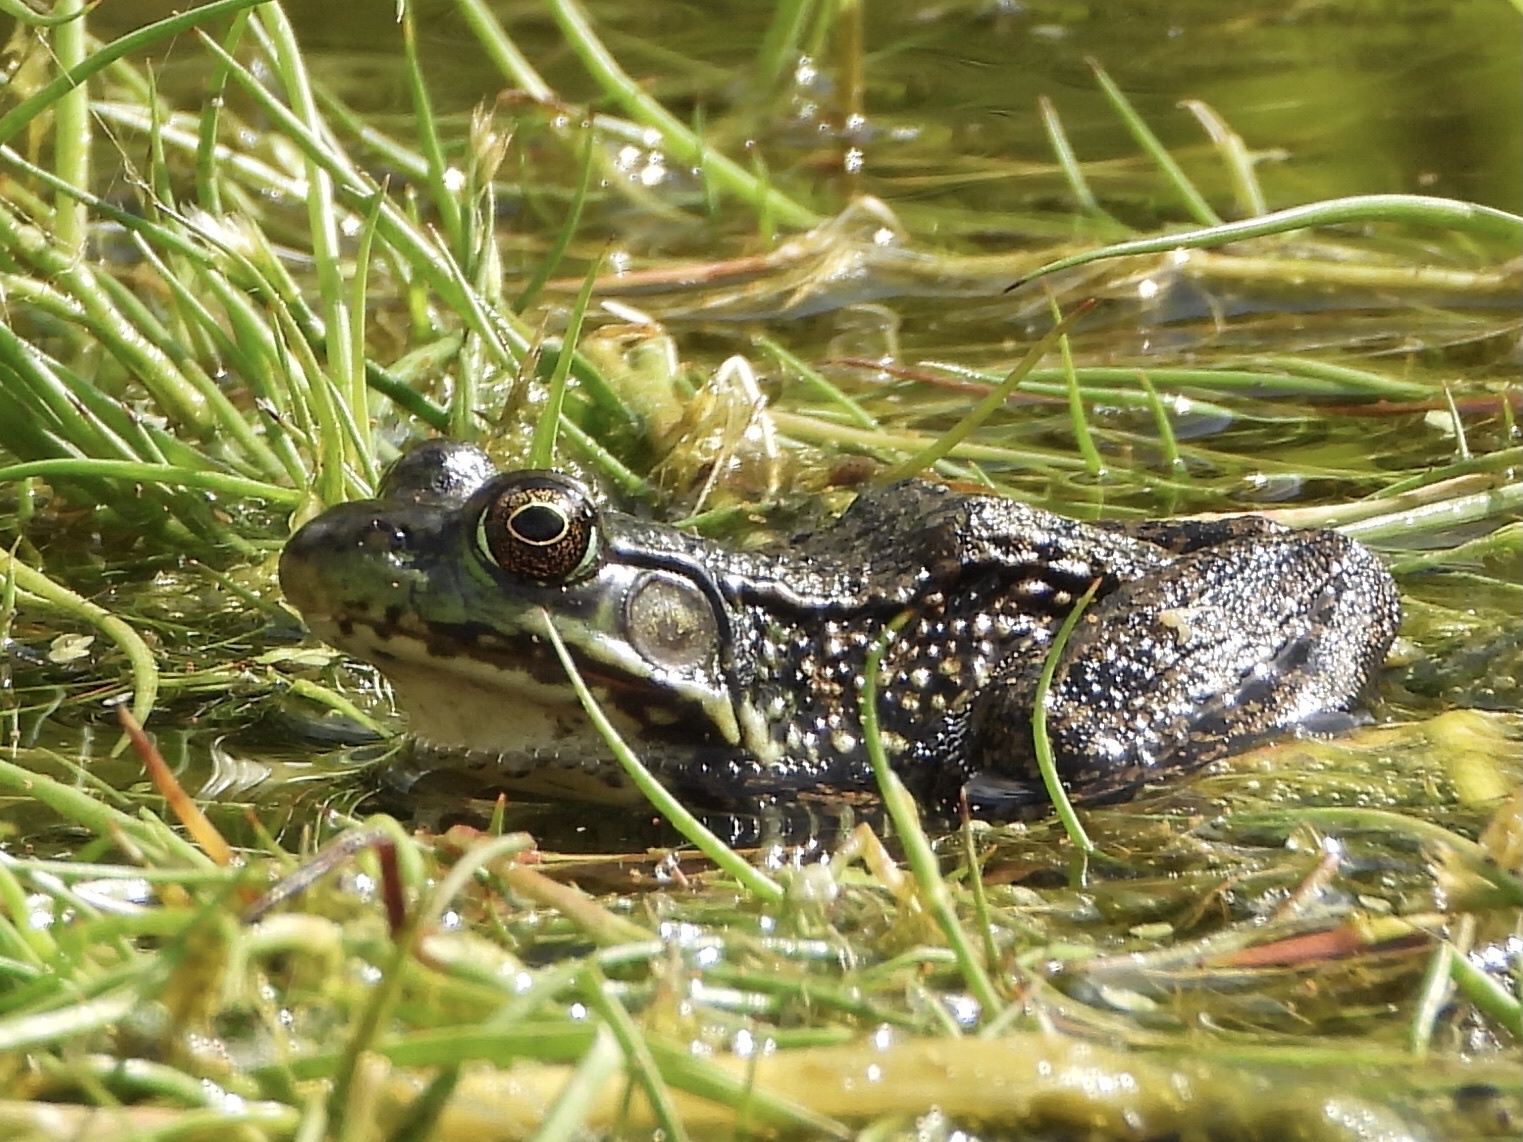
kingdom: Animalia
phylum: Chordata
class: Amphibia
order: Anura
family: Ranidae
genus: Lithobates
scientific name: Lithobates clamitans
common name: Green frog
